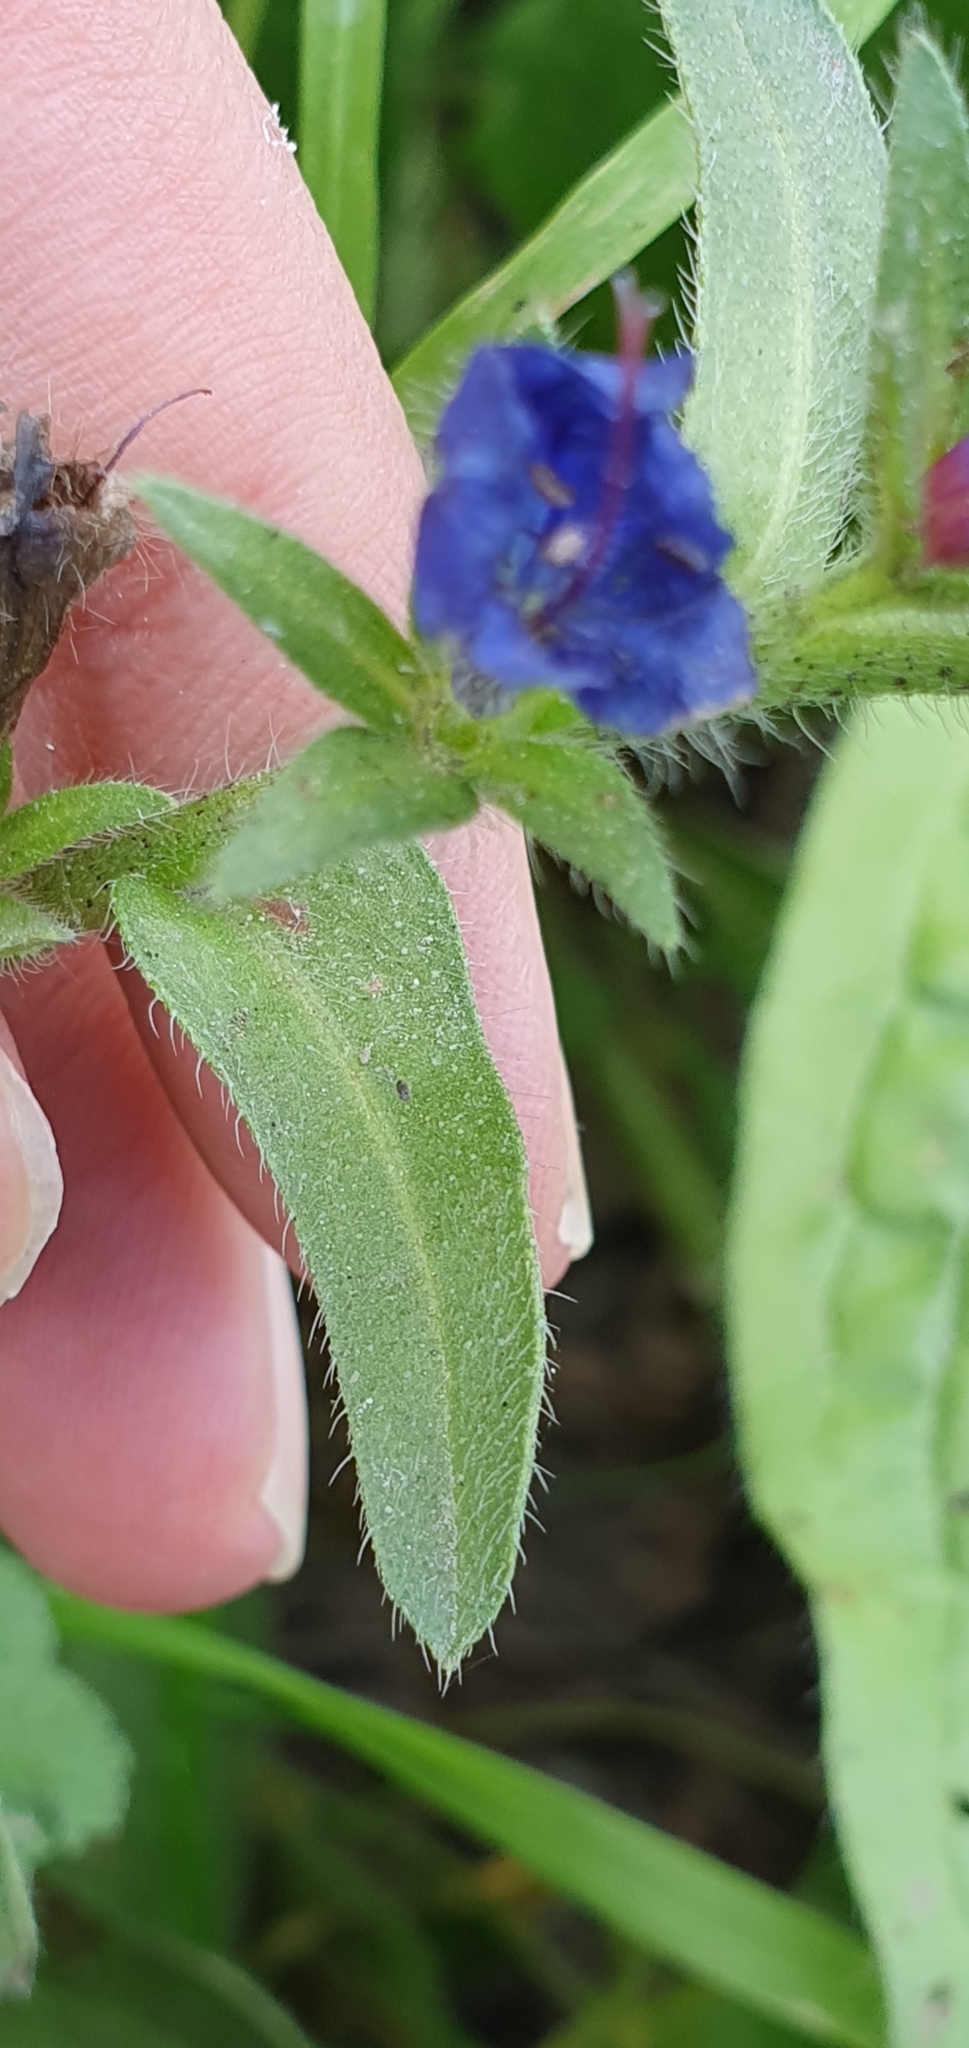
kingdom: Plantae
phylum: Tracheophyta
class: Magnoliopsida
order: Boraginales
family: Boraginaceae
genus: Echium
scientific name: Echium plantagineum
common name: Purple viper's-bugloss
